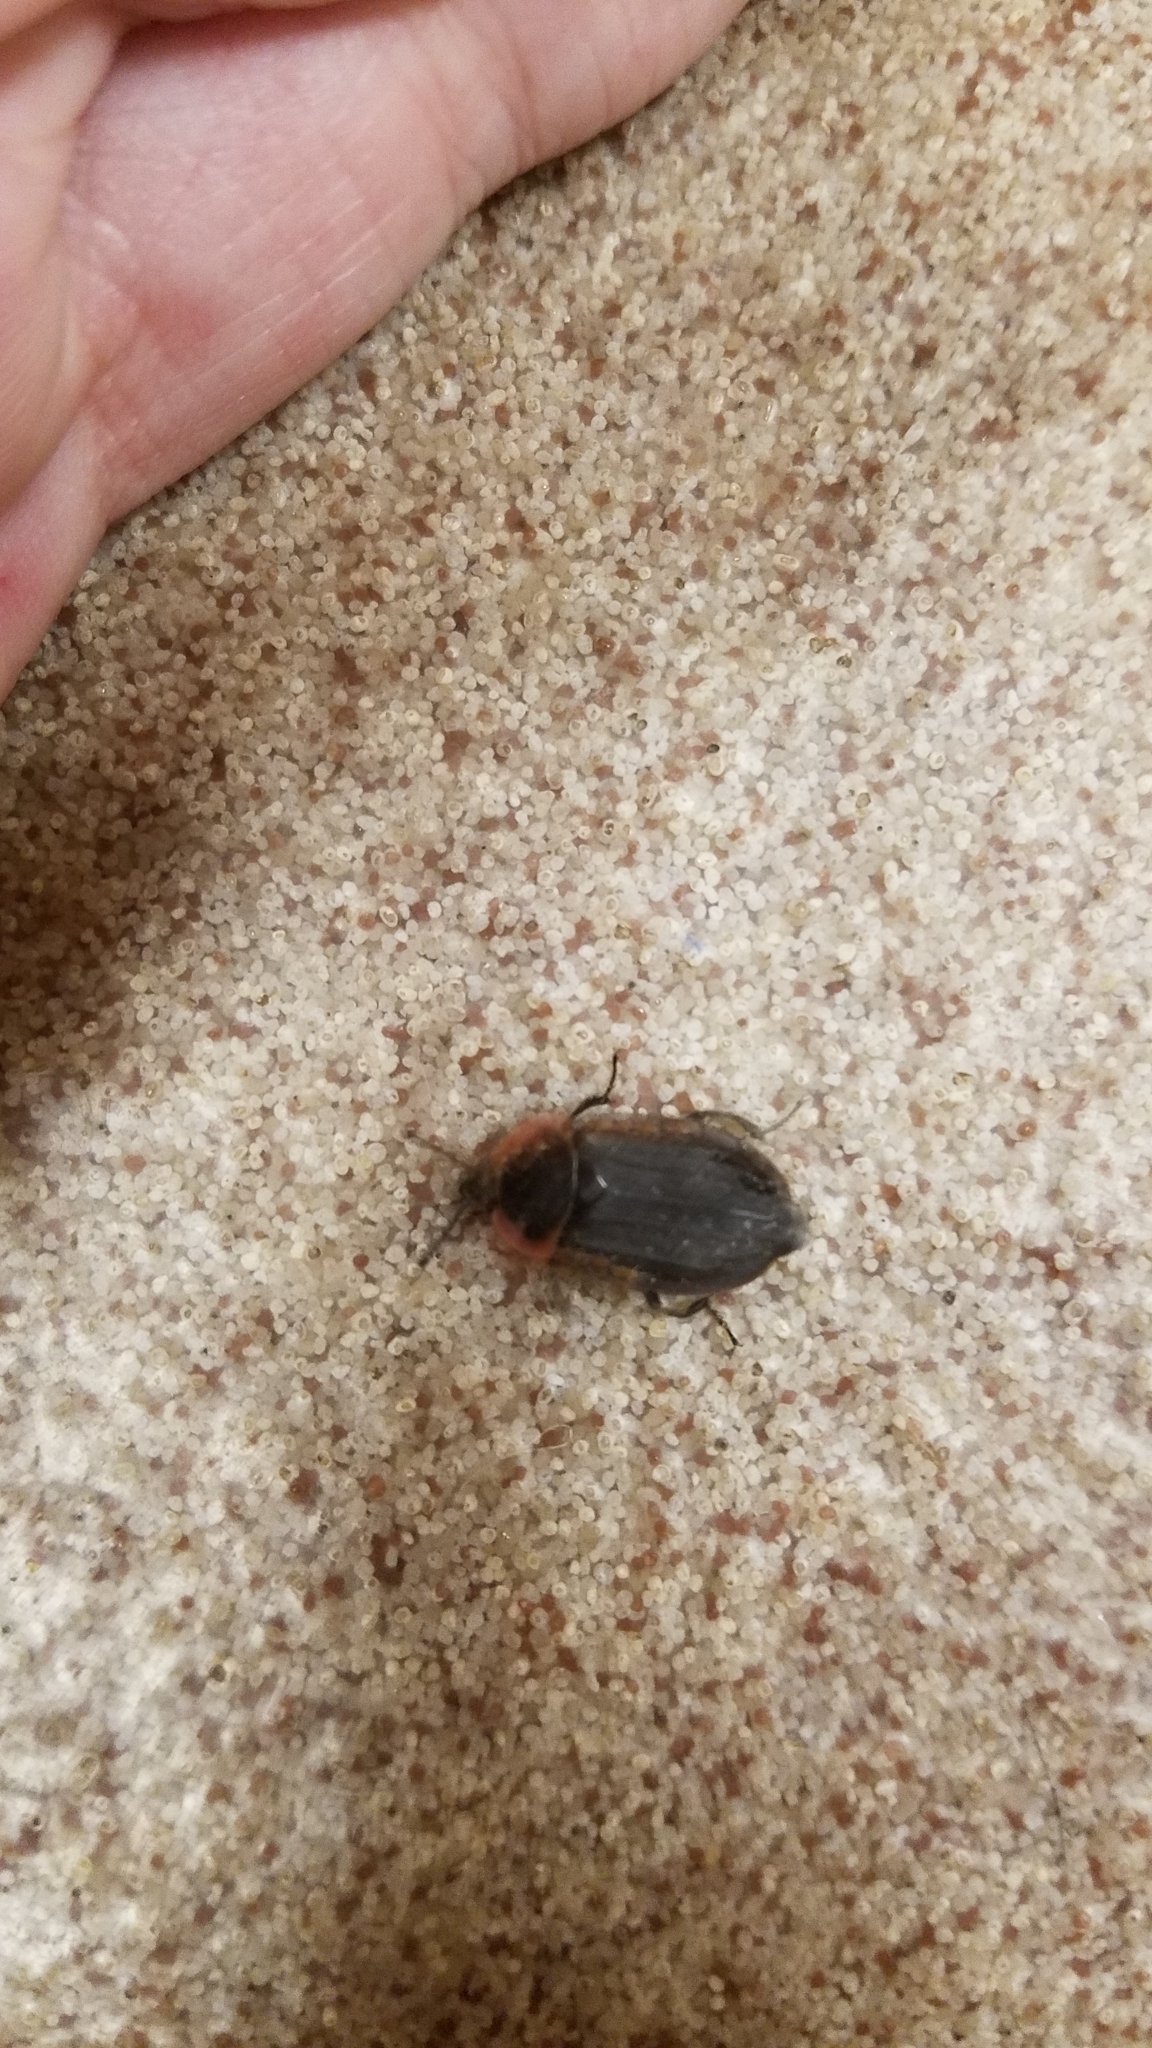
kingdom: Animalia
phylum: Arthropoda
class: Insecta
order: Coleoptera
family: Staphylinidae
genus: Oiceoptoma
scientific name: Oiceoptoma noveboracense
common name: Margined carrion beetle
